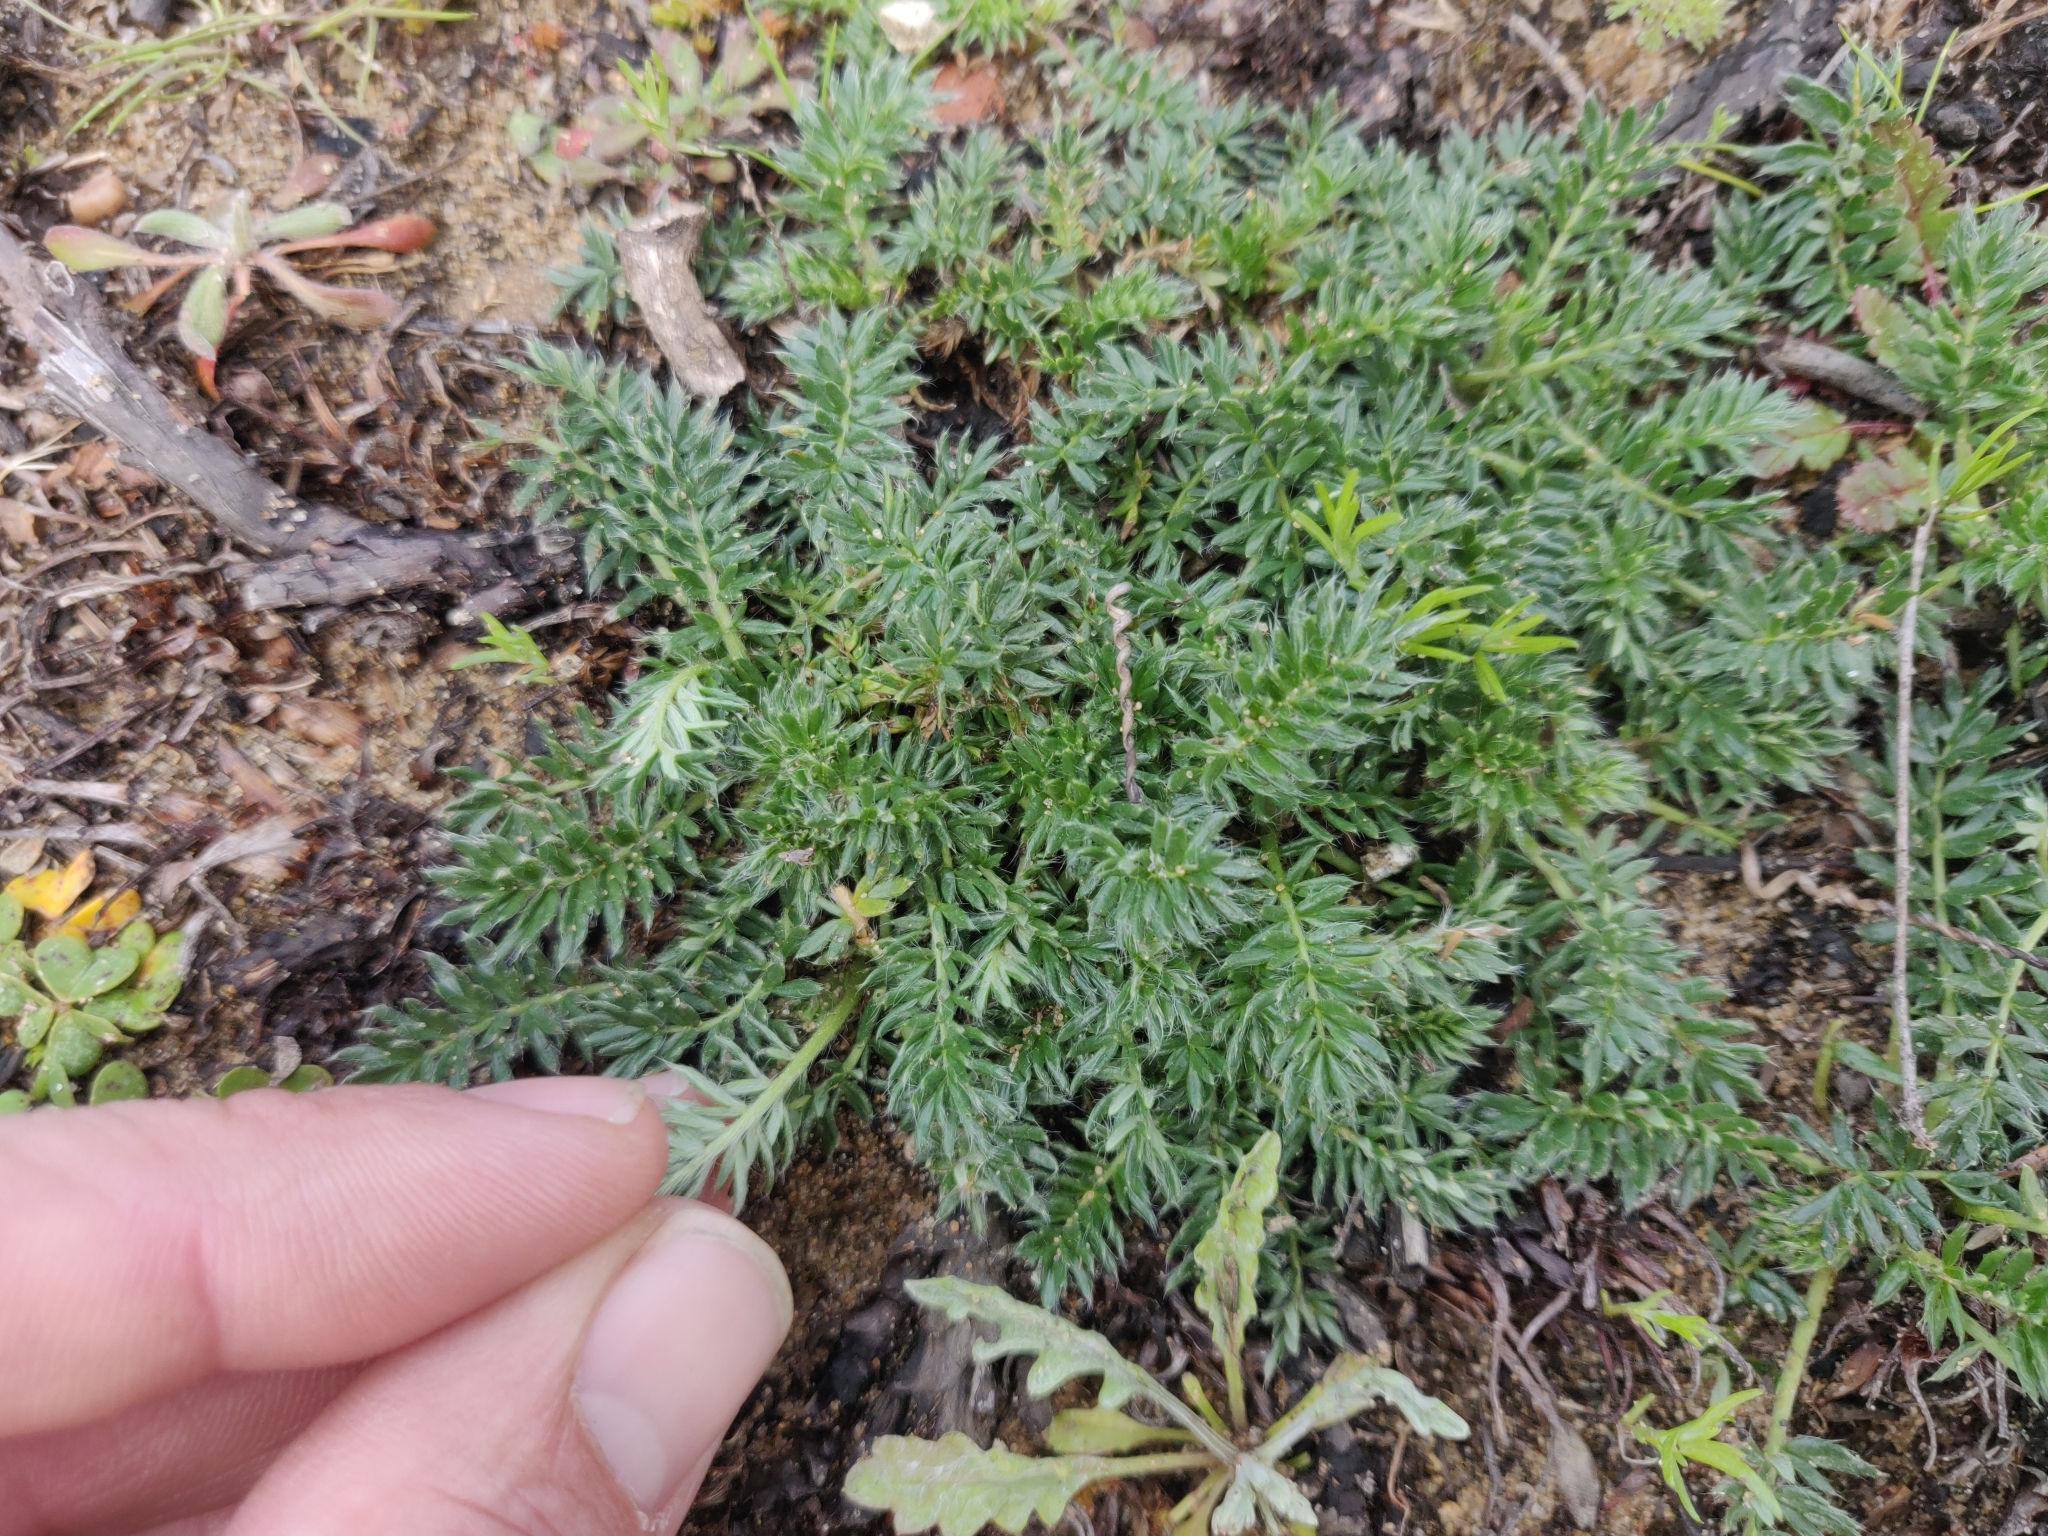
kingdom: Plantae
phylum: Tracheophyta
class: Magnoliopsida
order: Rosales
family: Rosaceae
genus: Acaena
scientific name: Acaena pinnatifida
